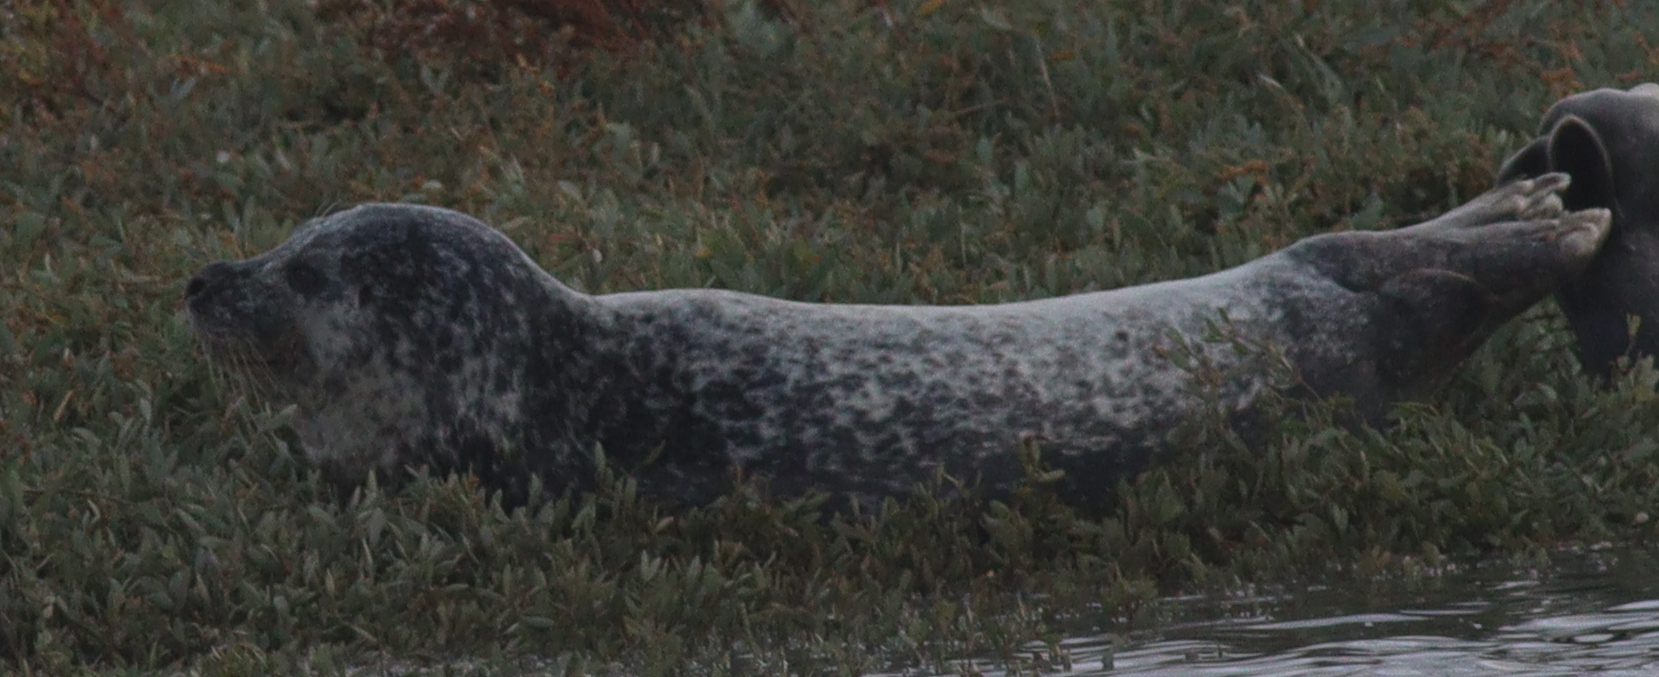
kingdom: Animalia
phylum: Chordata
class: Mammalia
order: Carnivora
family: Phocidae
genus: Phoca
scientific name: Phoca vitulina
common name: Harbor seal
